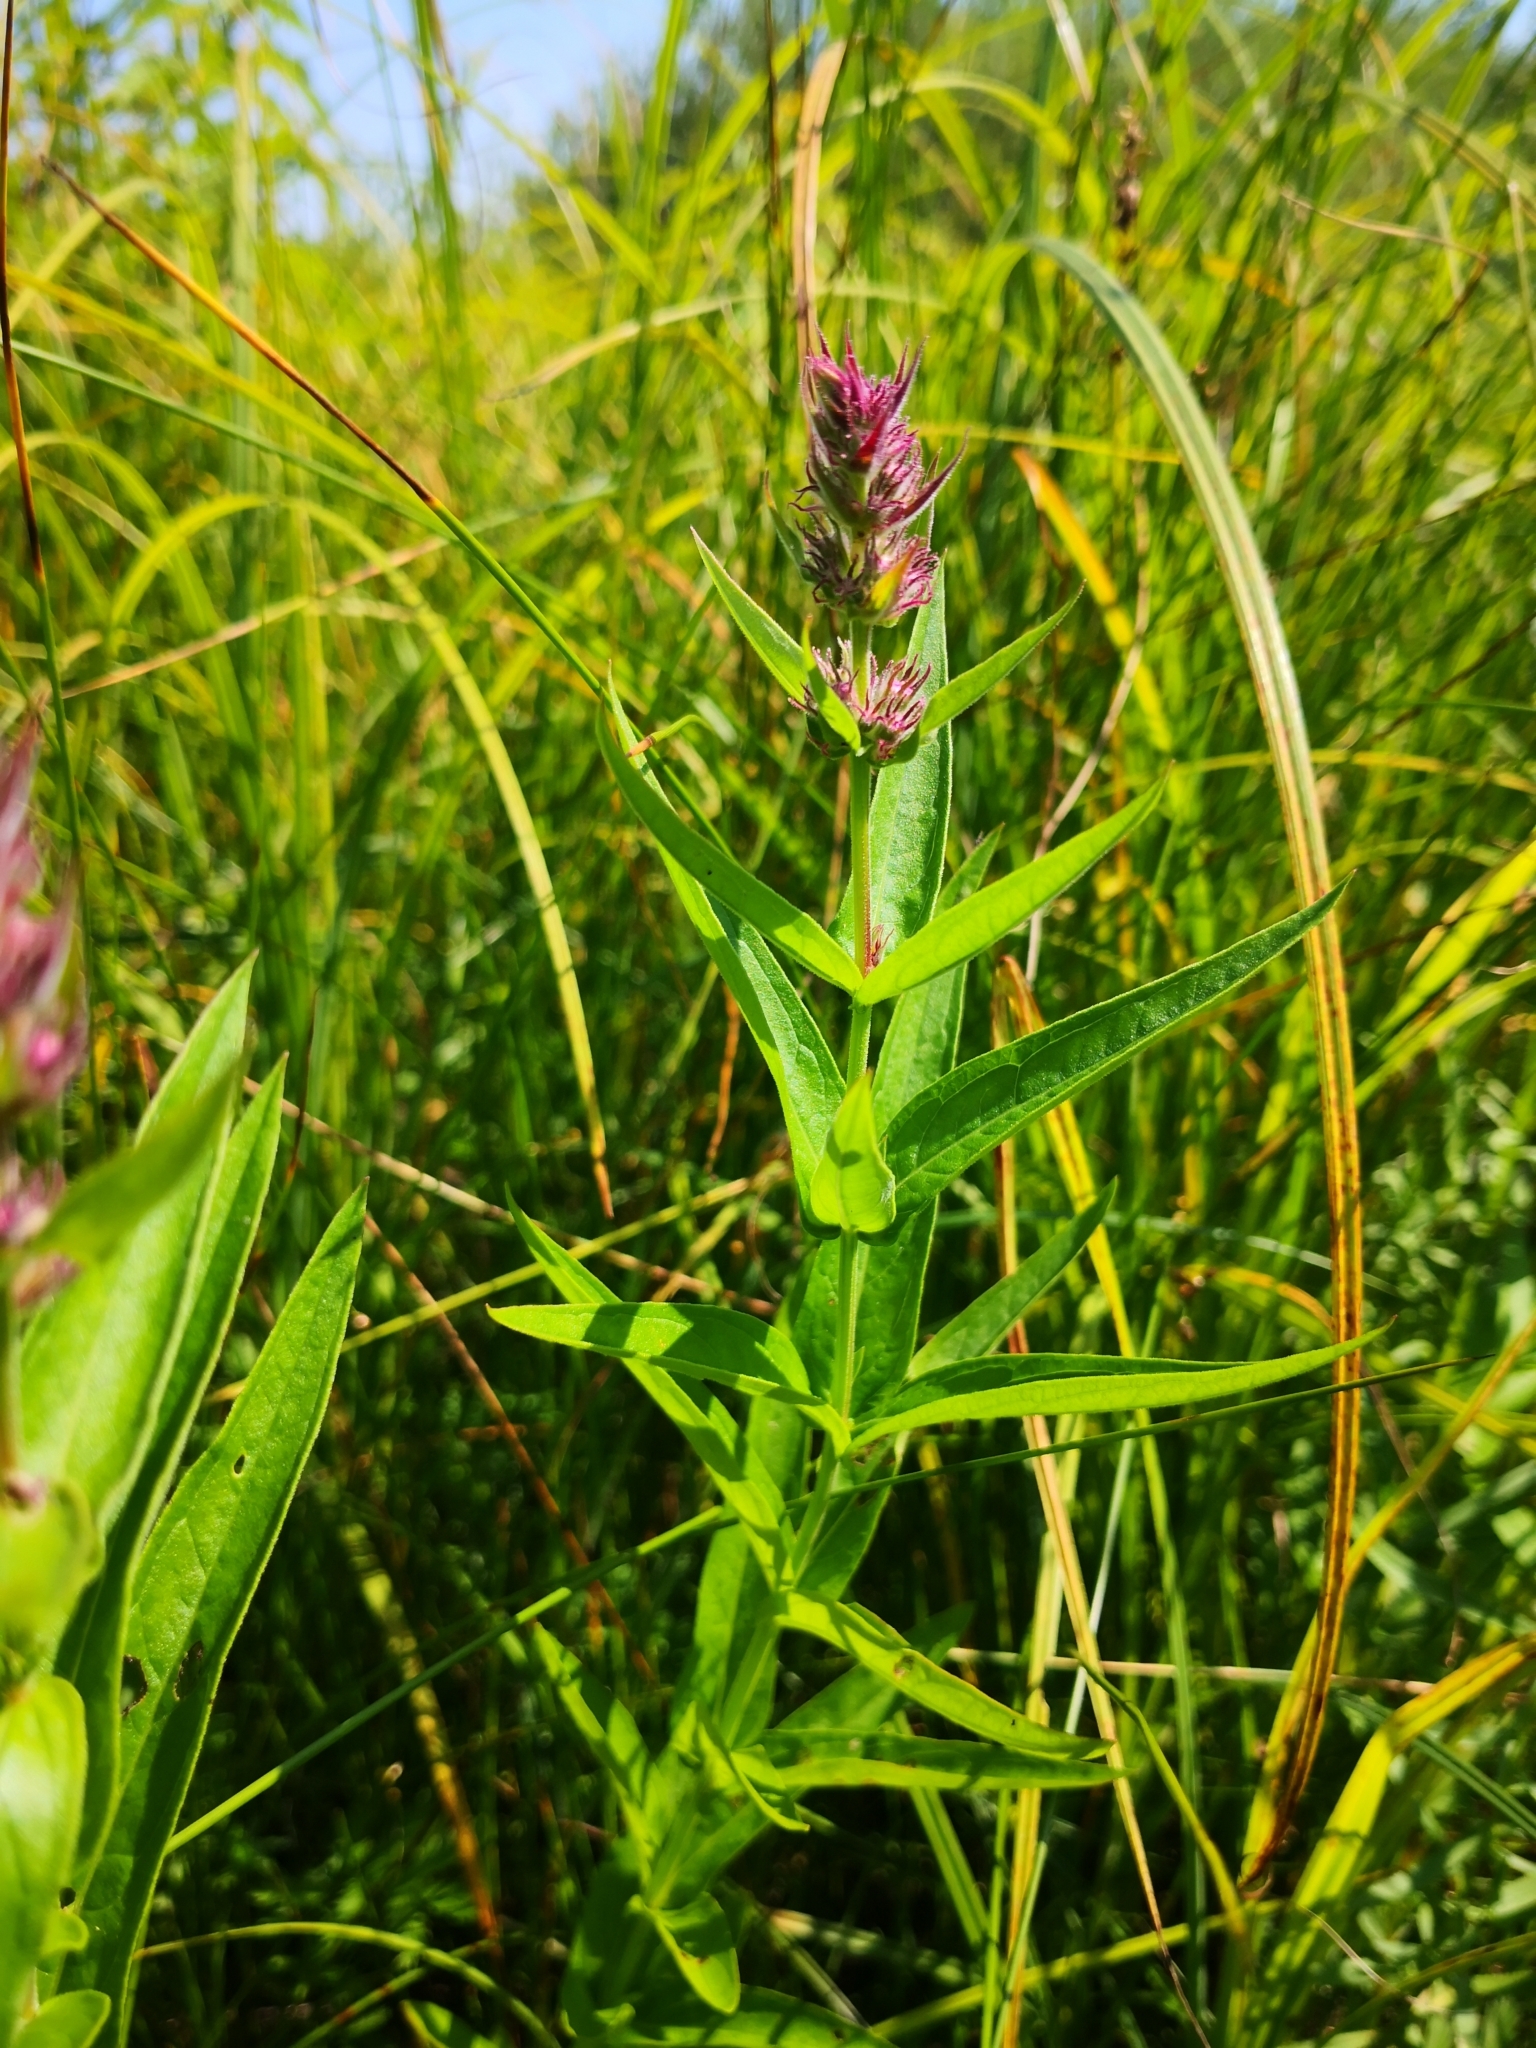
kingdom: Plantae
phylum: Tracheophyta
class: Magnoliopsida
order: Myrtales
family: Lythraceae
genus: Lythrum
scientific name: Lythrum salicaria
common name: Purple loosestrife
